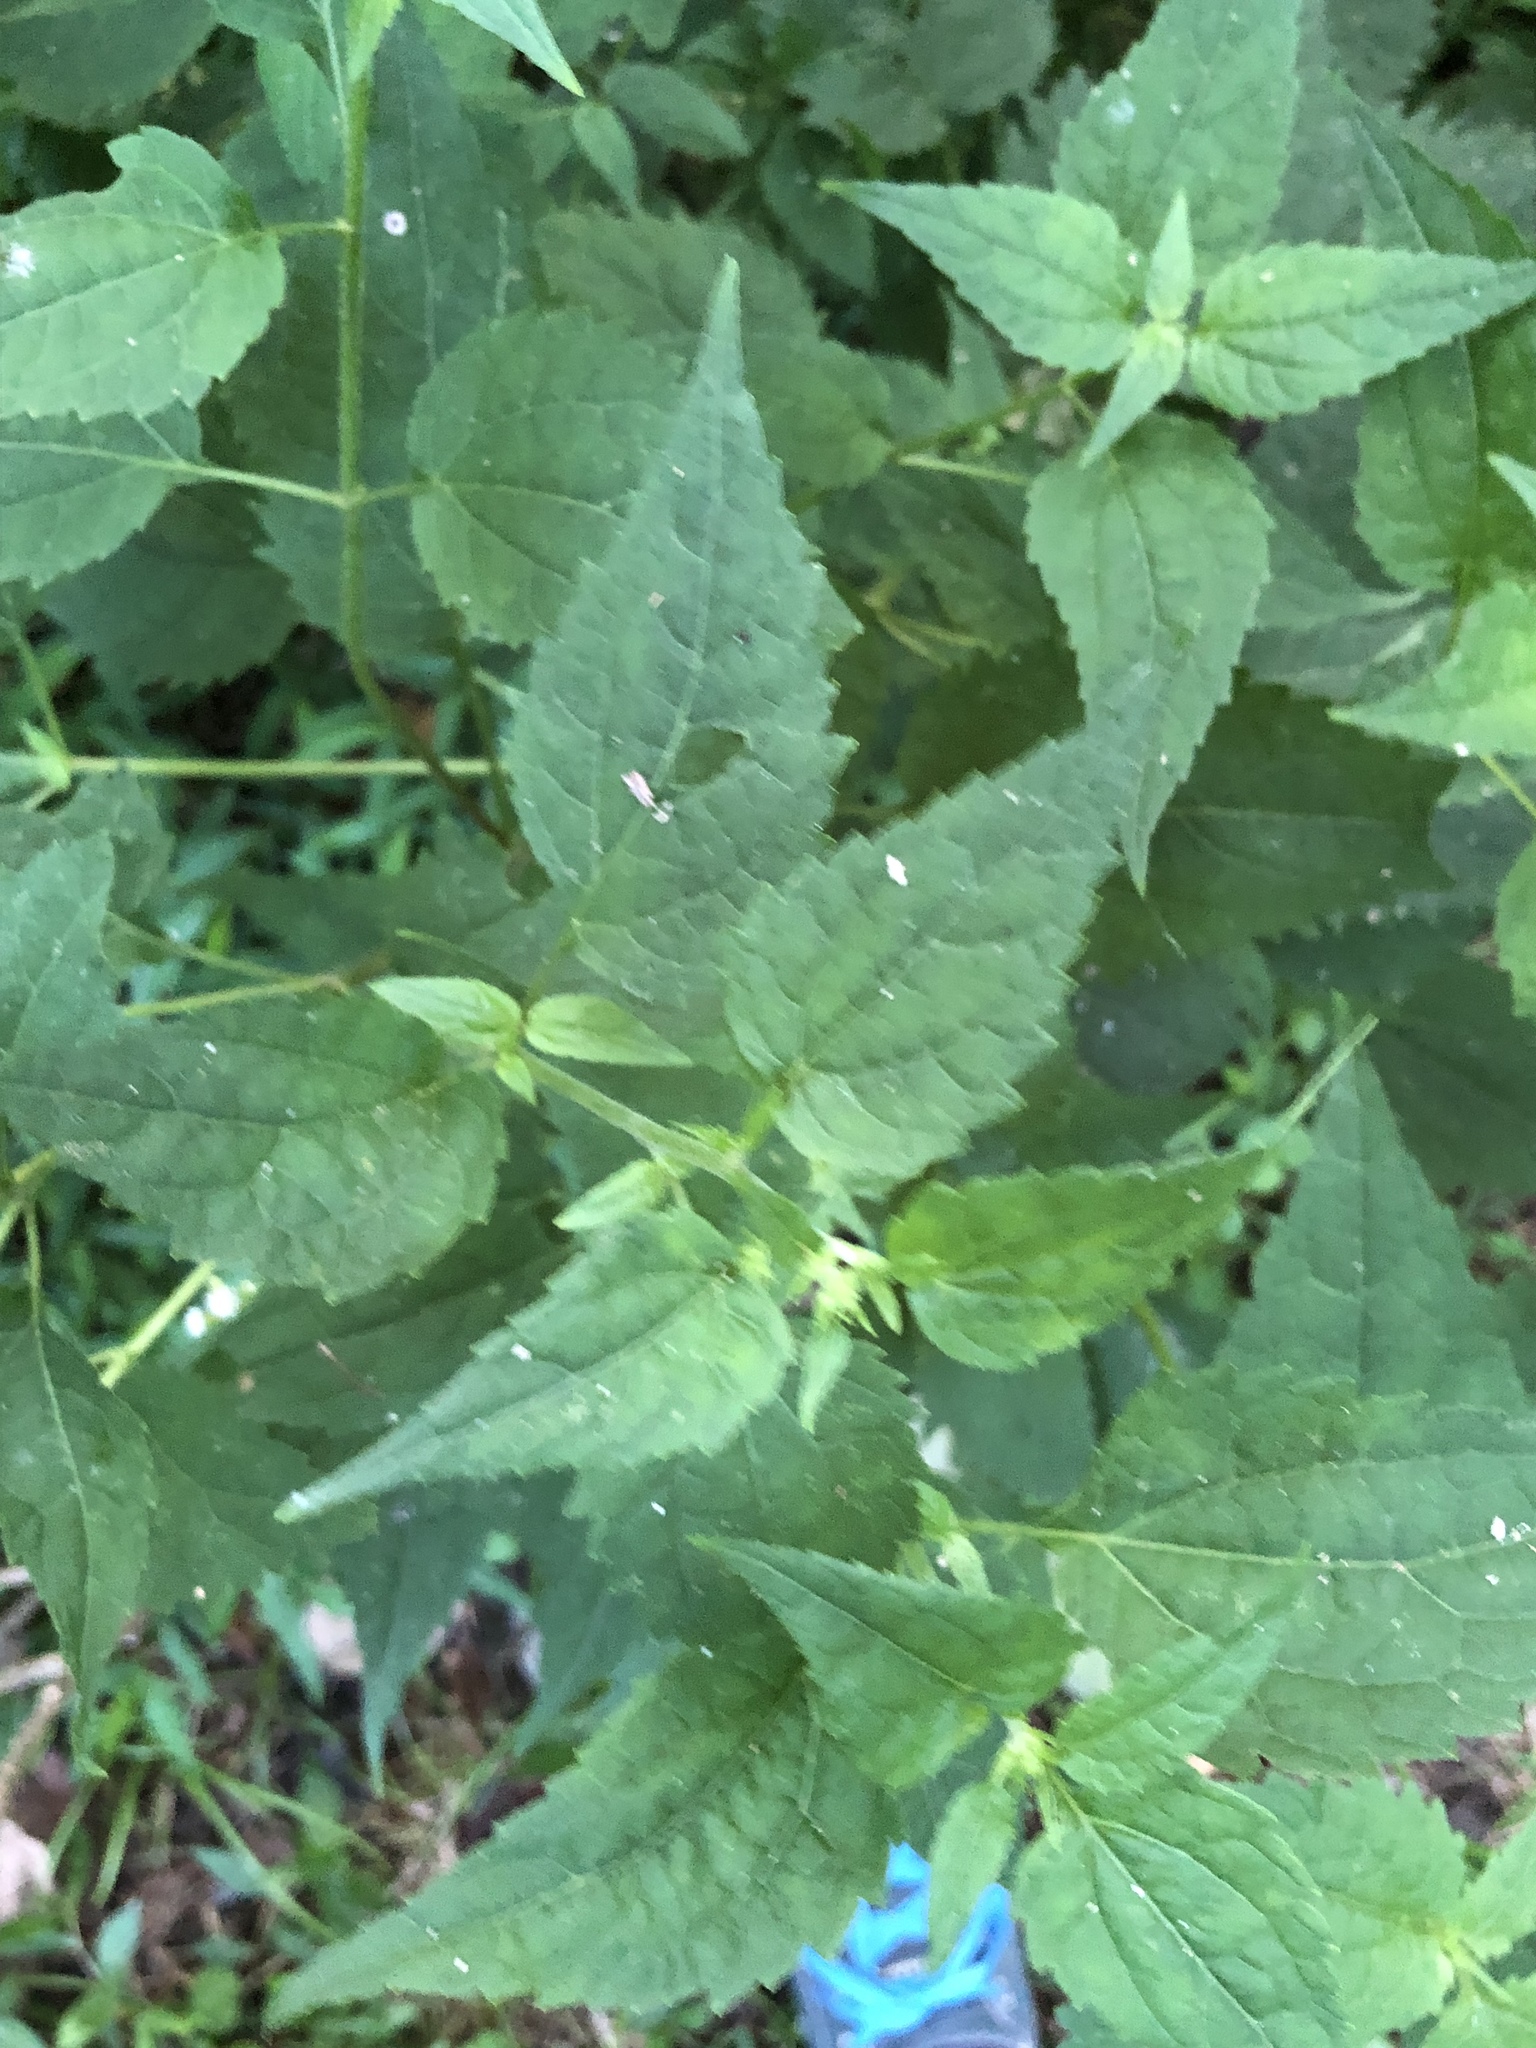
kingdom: Plantae
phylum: Tracheophyta
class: Magnoliopsida
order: Asterales
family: Asteraceae
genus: Ageratina
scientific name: Ageratina altissima
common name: White snakeroot
